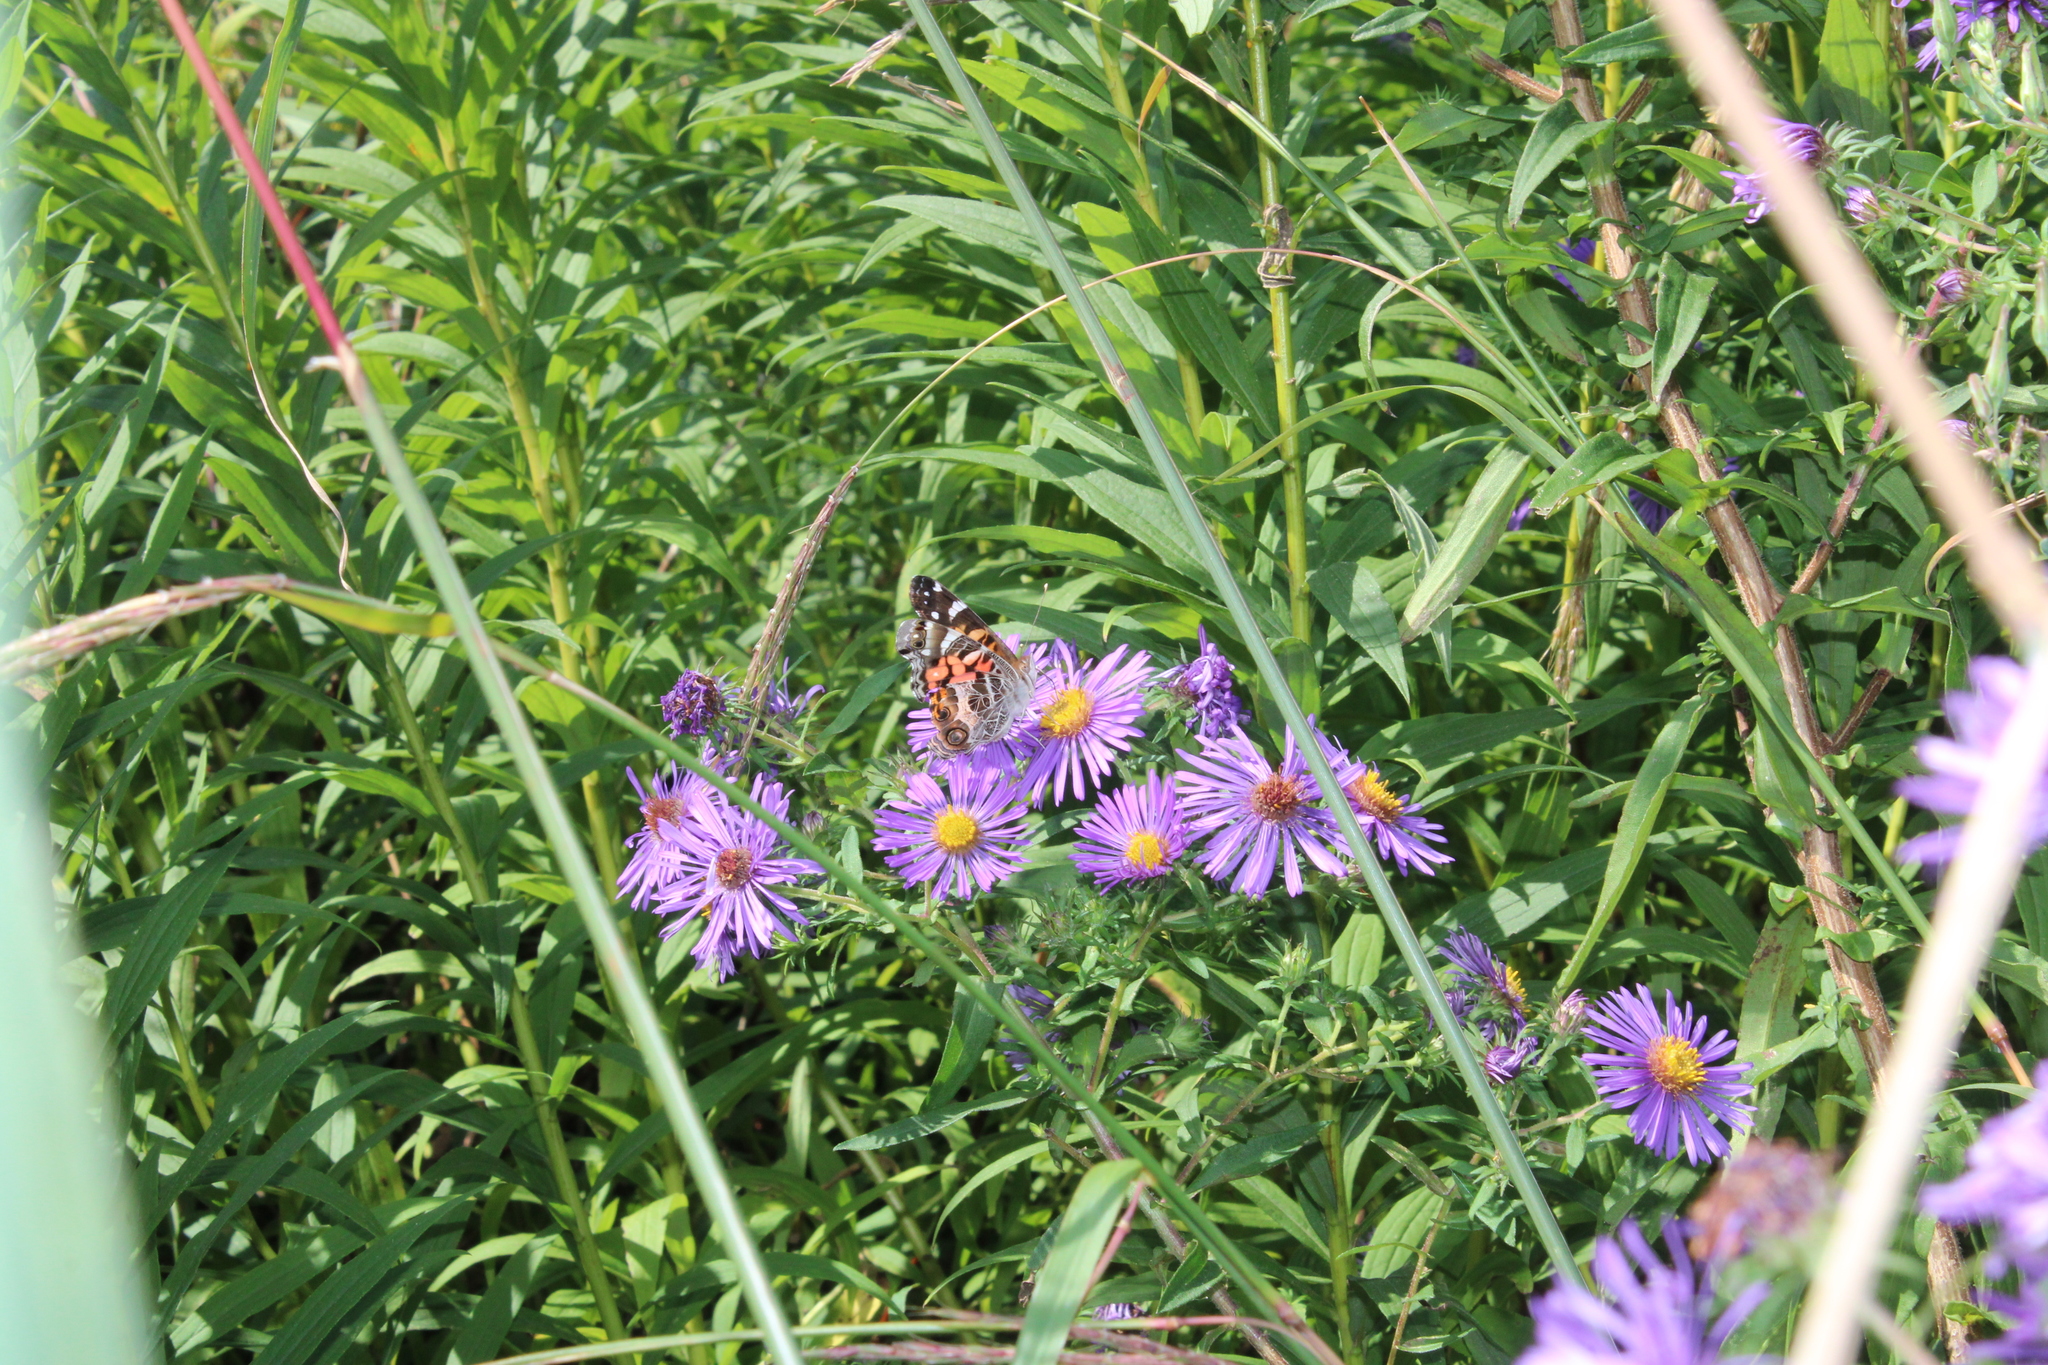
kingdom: Animalia
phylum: Arthropoda
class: Insecta
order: Lepidoptera
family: Nymphalidae
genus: Vanessa
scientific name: Vanessa virginiensis
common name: American lady
